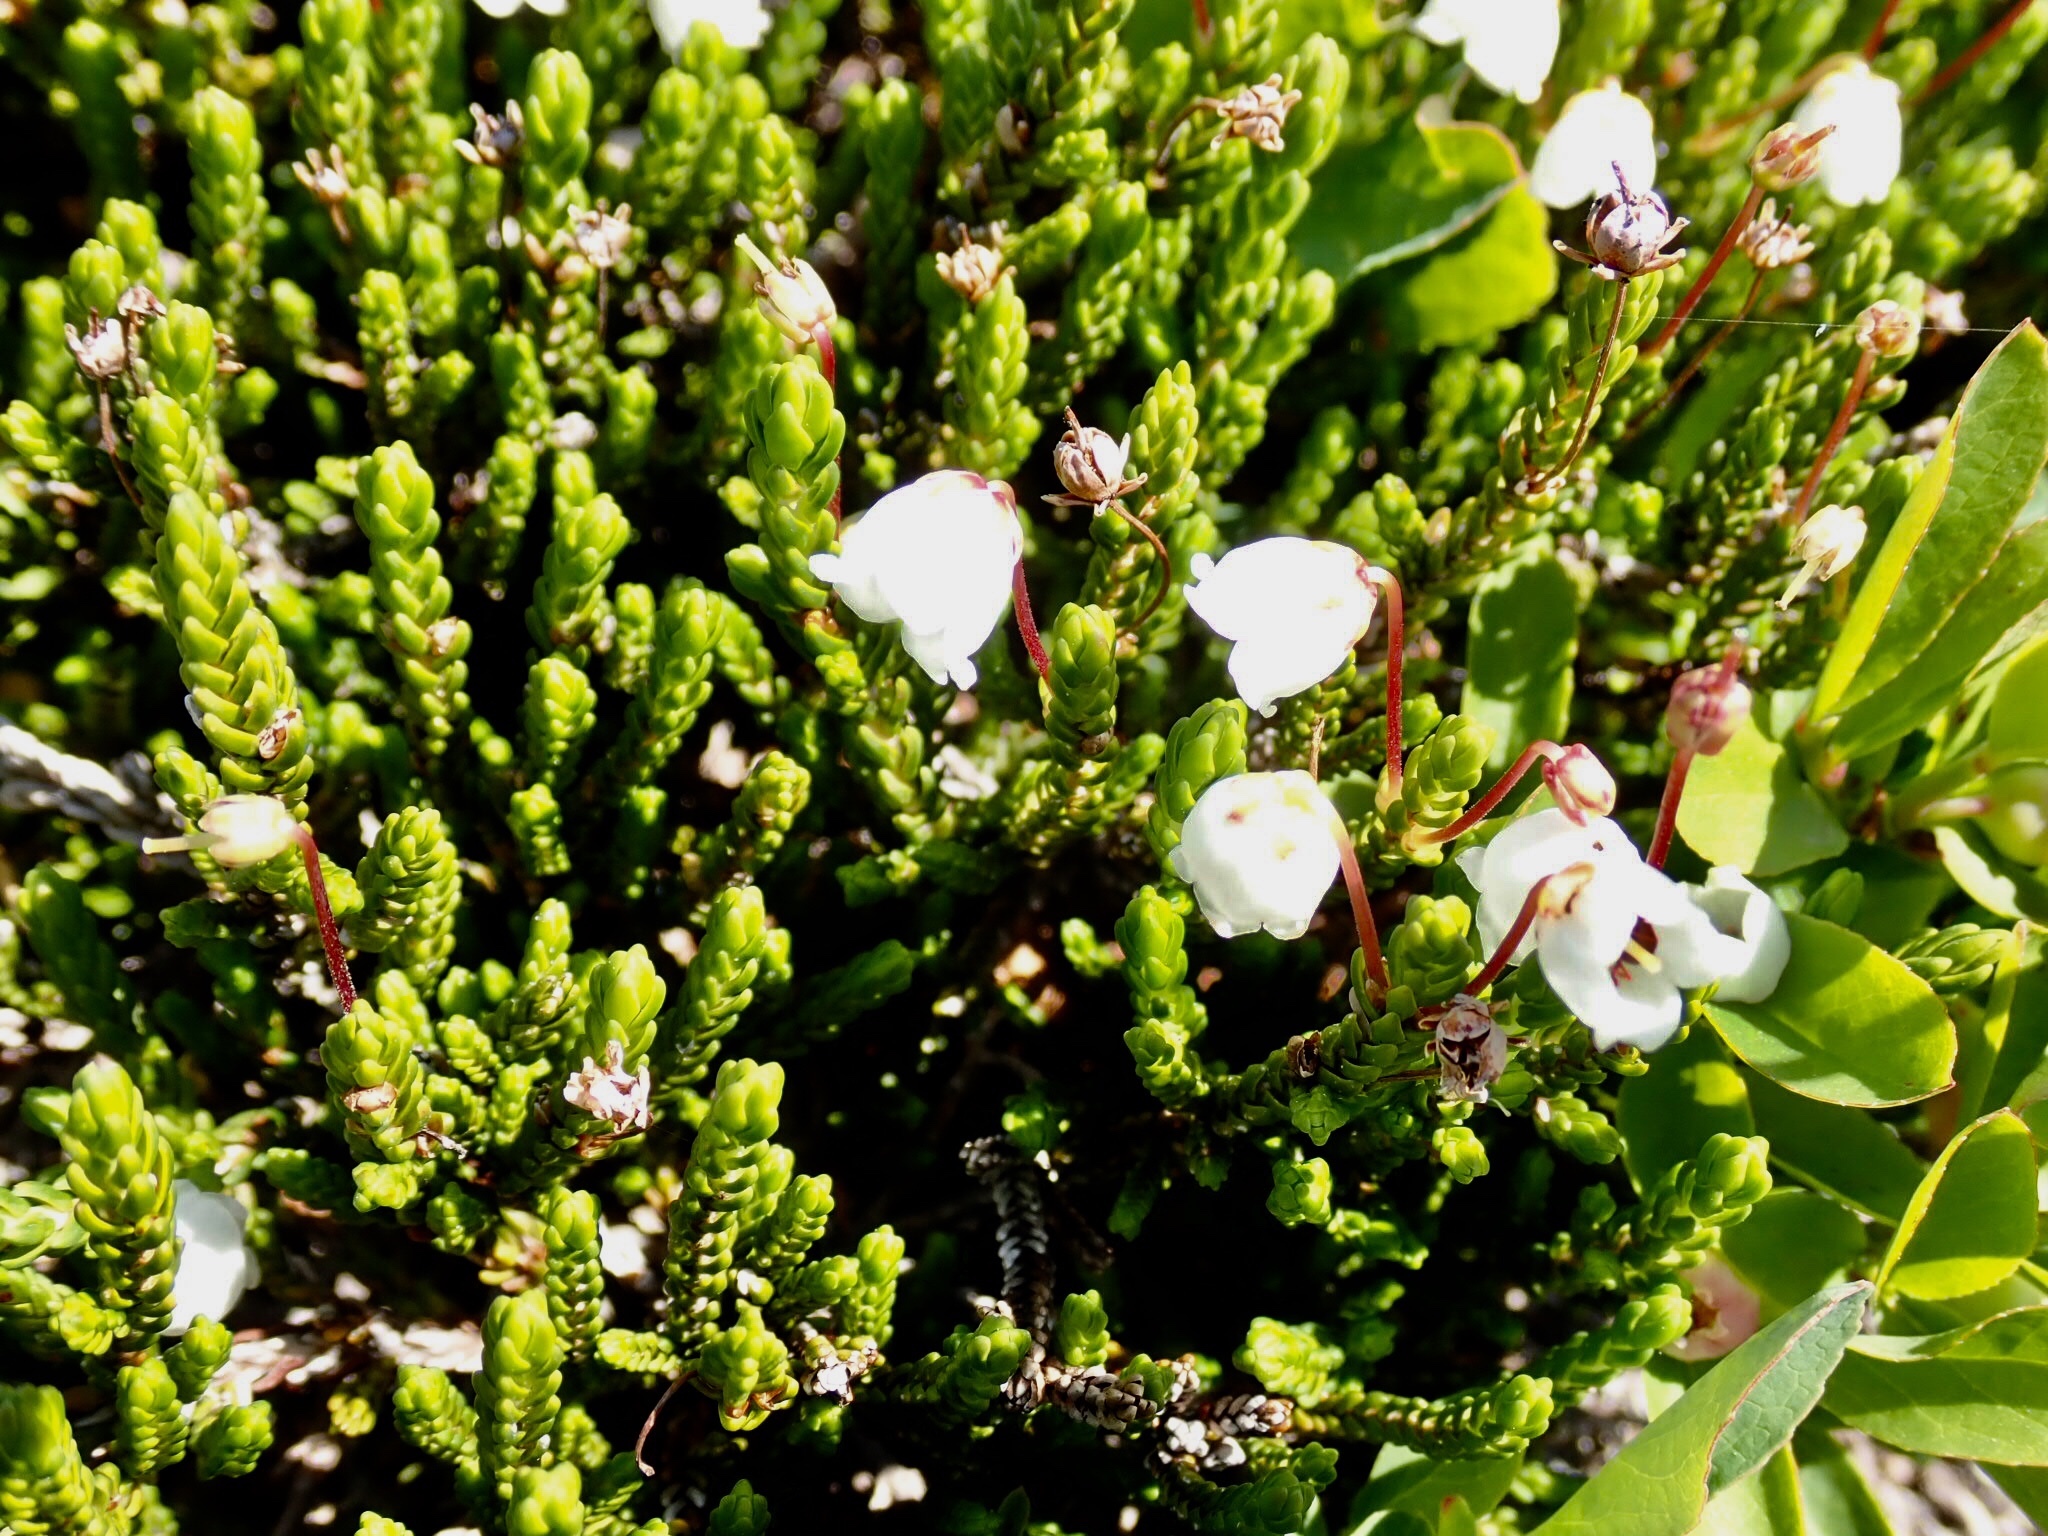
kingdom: Plantae
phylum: Tracheophyta
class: Magnoliopsida
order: Ericales
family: Ericaceae
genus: Cassiope
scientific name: Cassiope mertensiana
